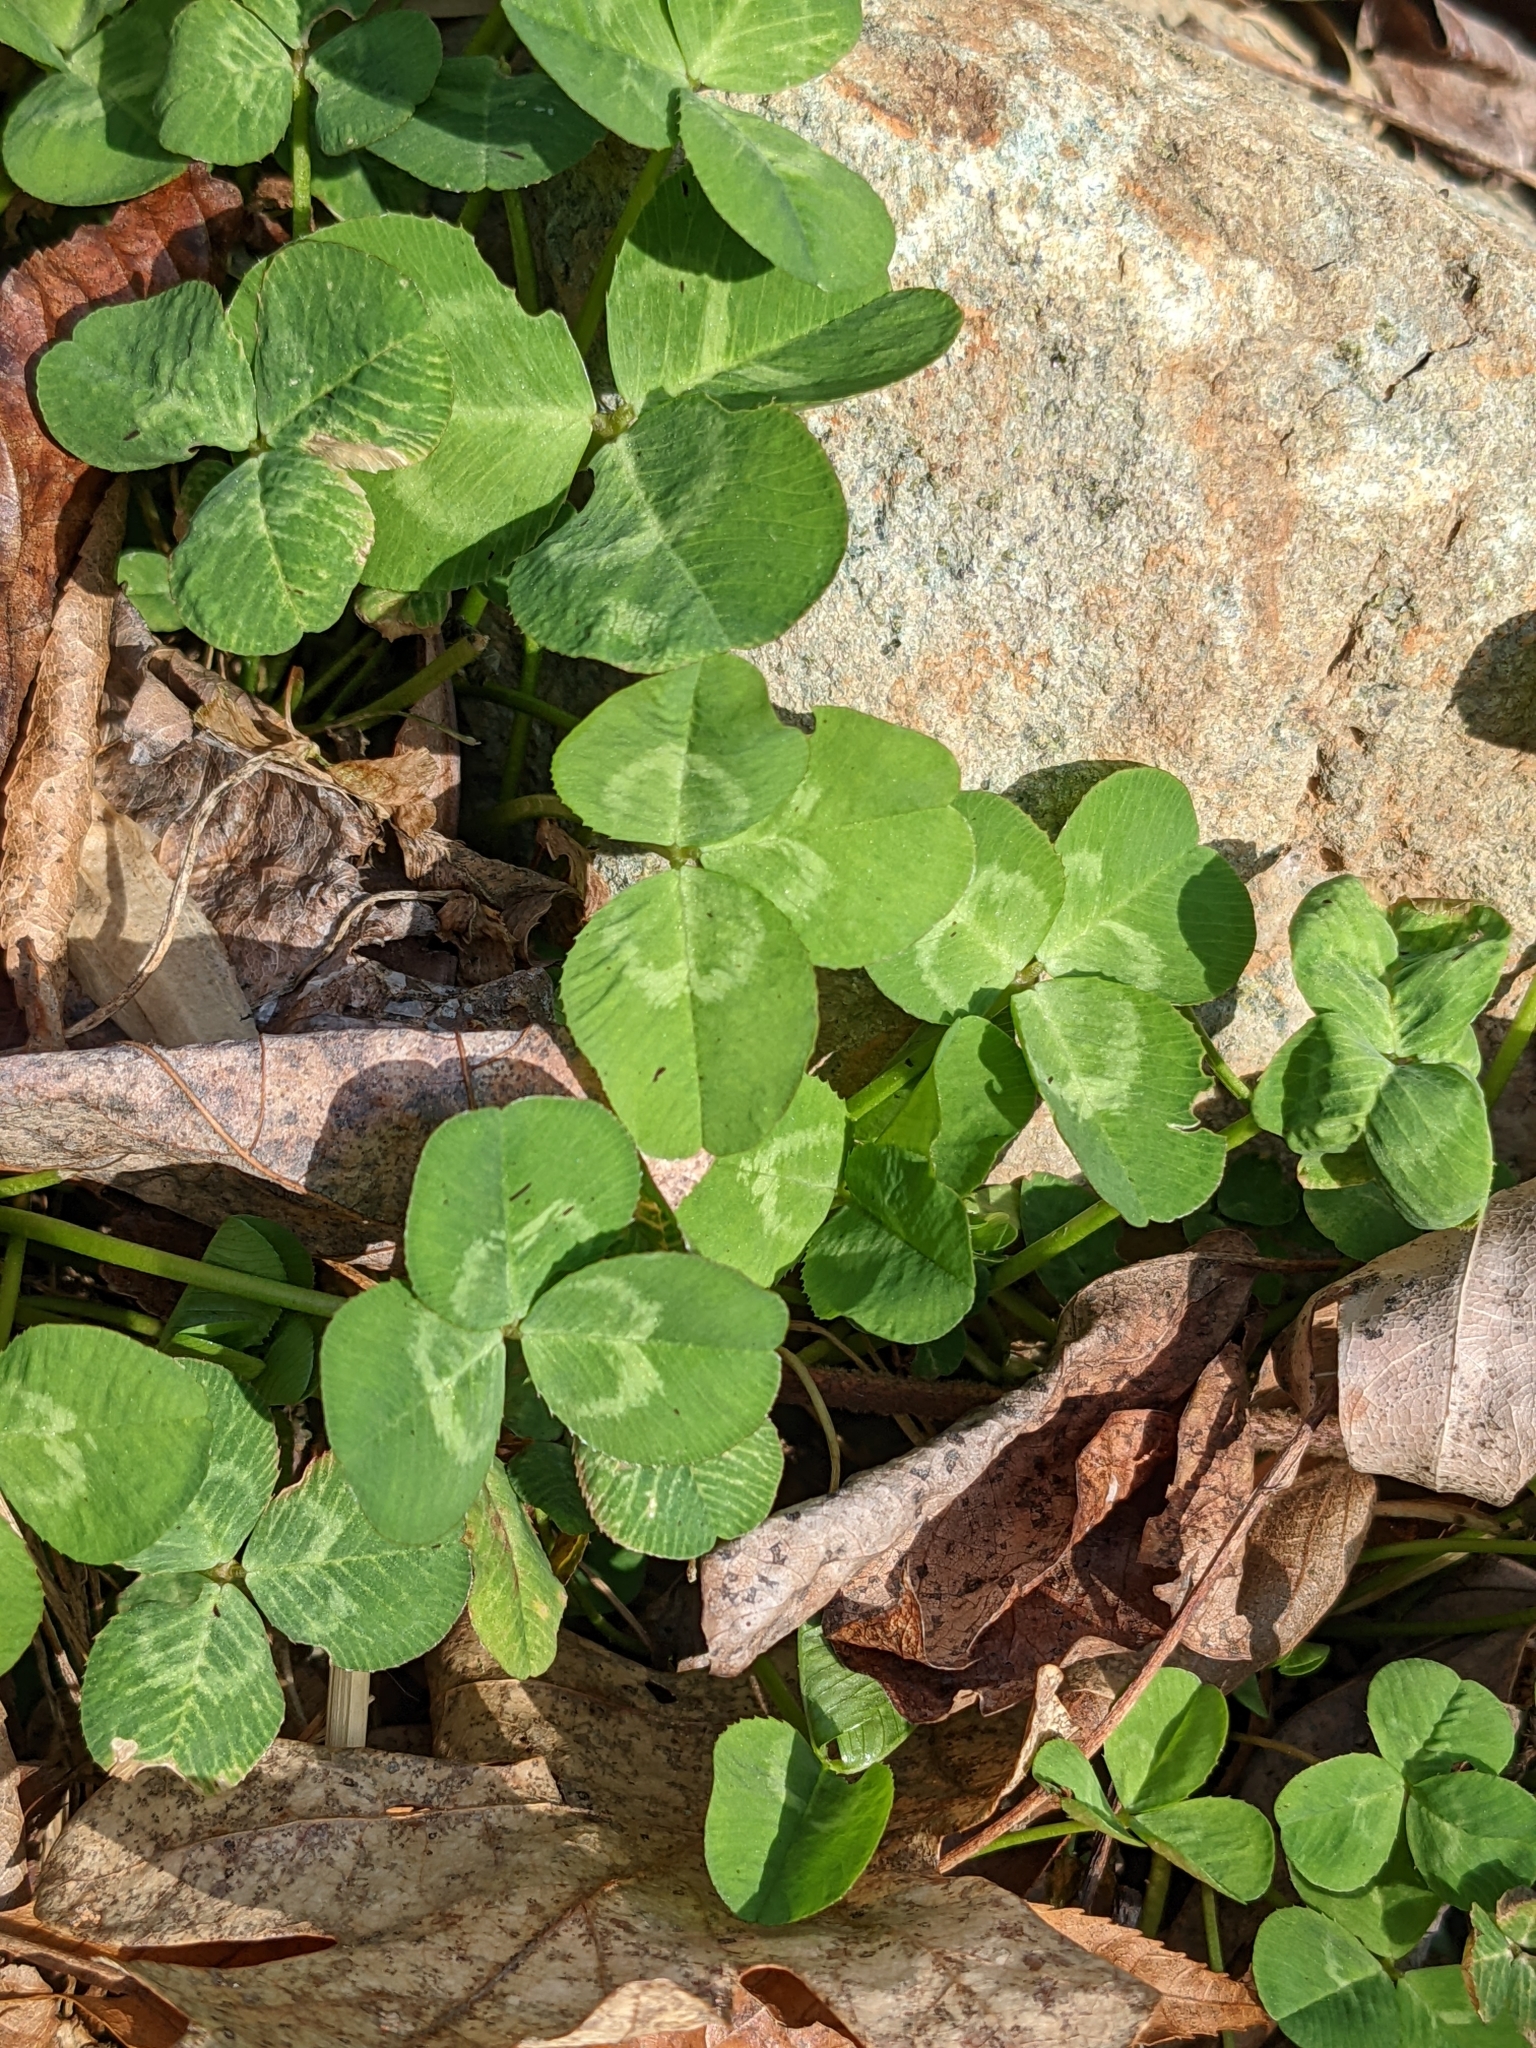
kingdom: Plantae
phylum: Tracheophyta
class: Magnoliopsida
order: Fabales
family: Fabaceae
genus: Trifolium
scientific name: Trifolium repens
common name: White clover
